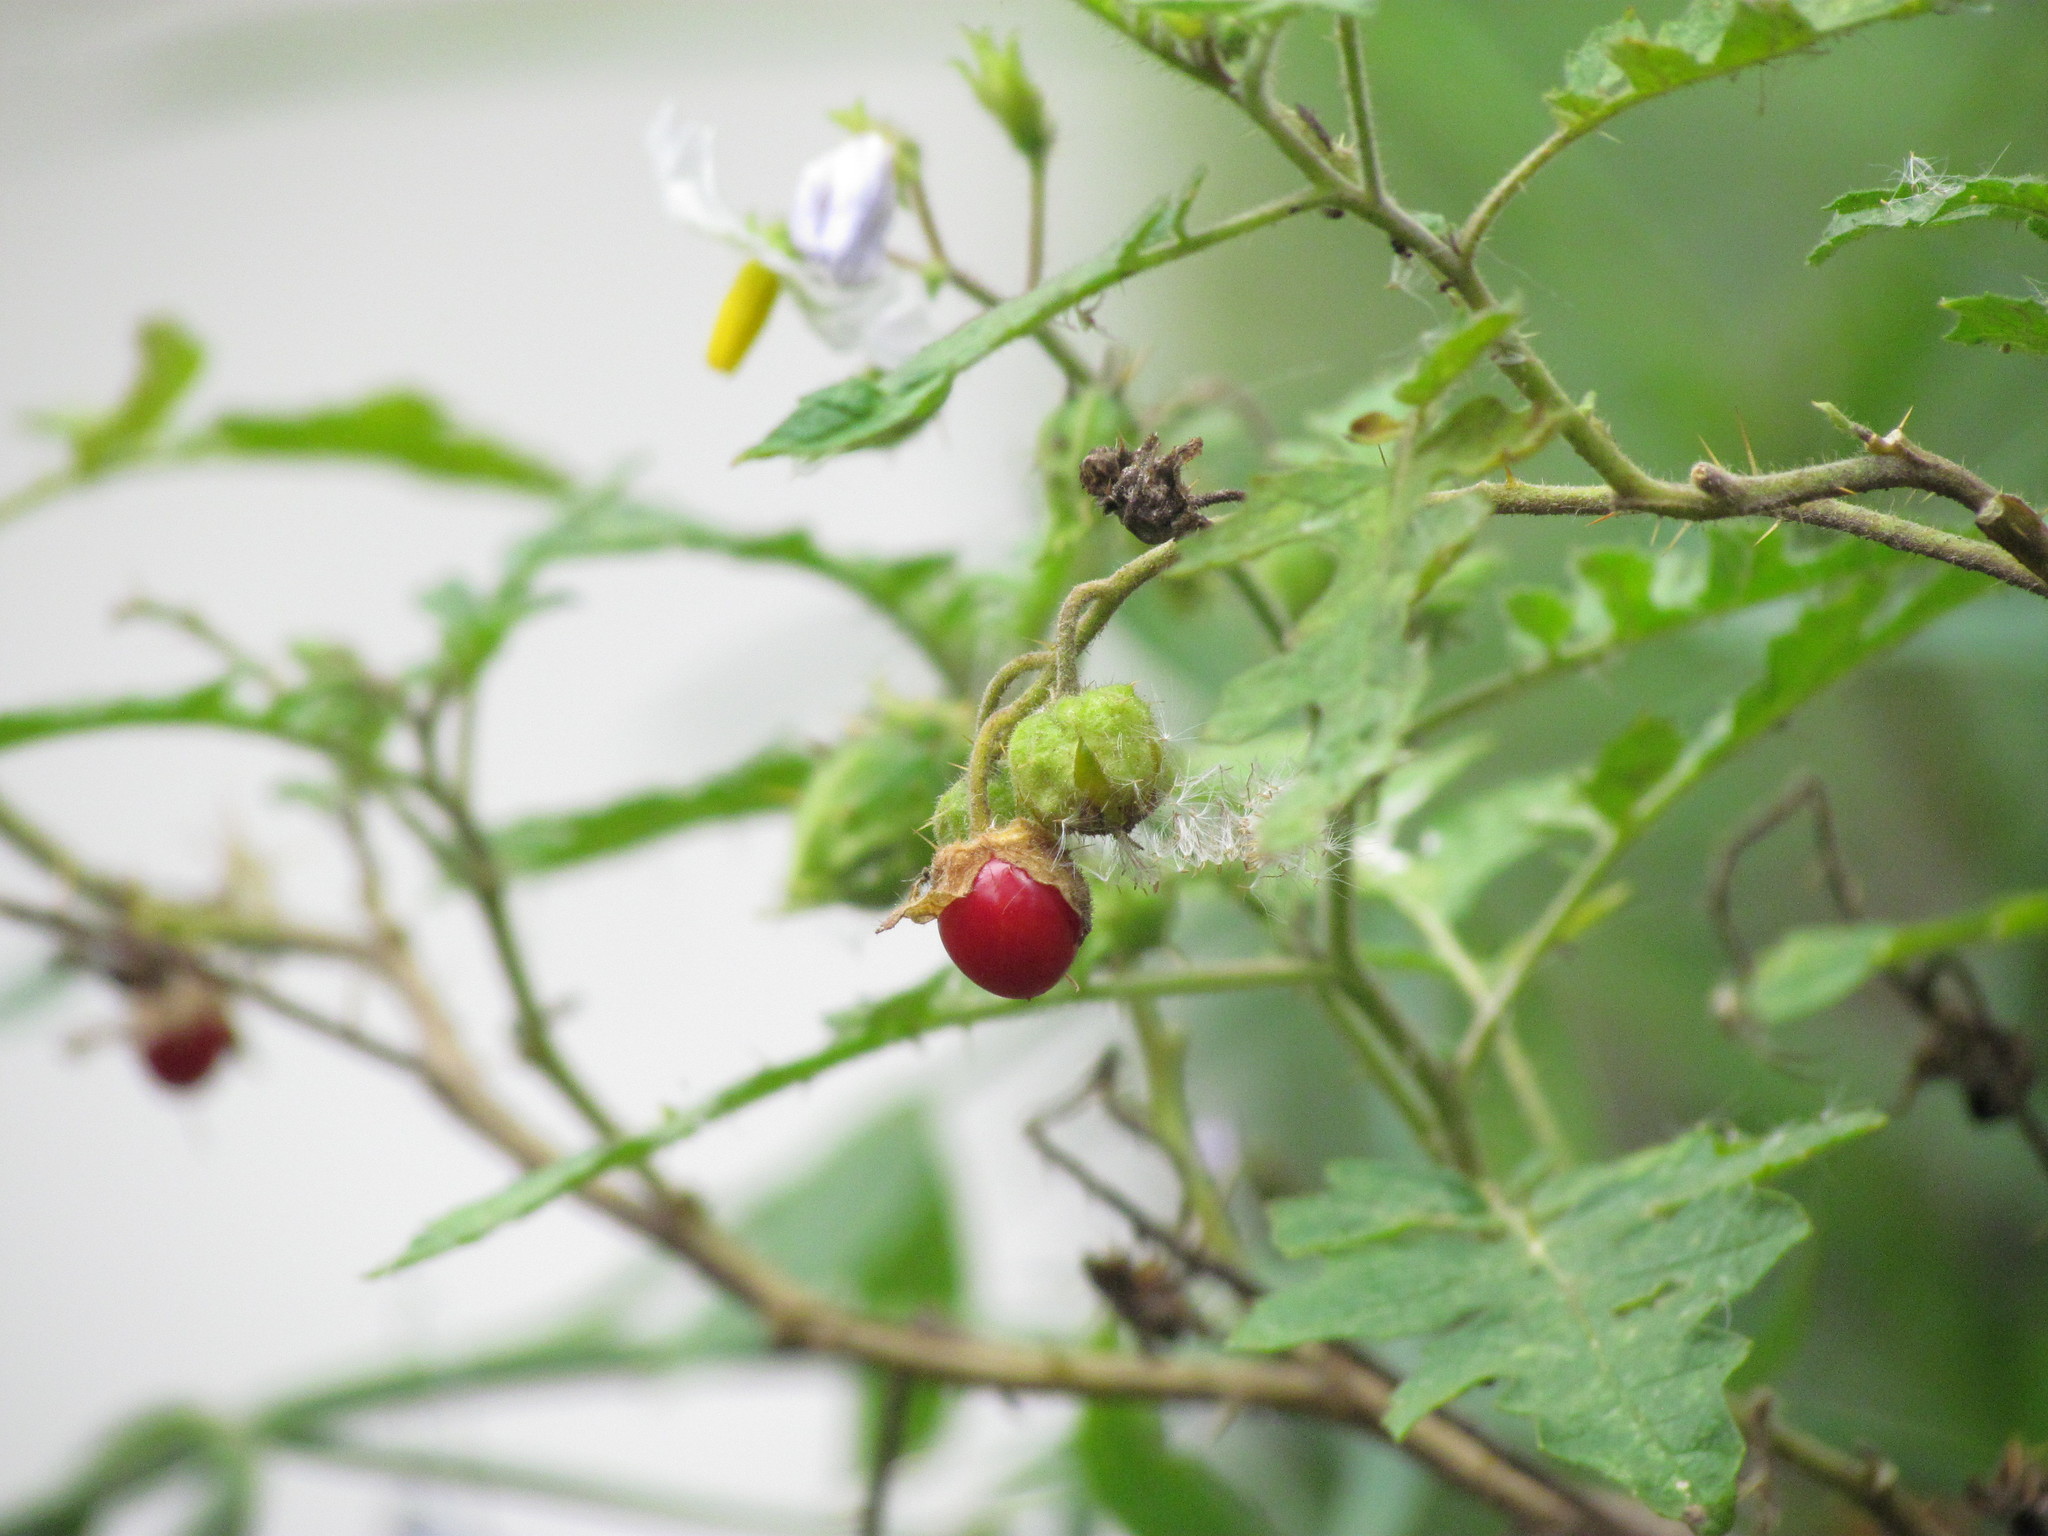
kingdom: Plantae
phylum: Tracheophyta
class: Magnoliopsida
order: Solanales
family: Solanaceae
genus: Solanum
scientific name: Solanum sisymbriifolium
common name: Red buffalo-bur
